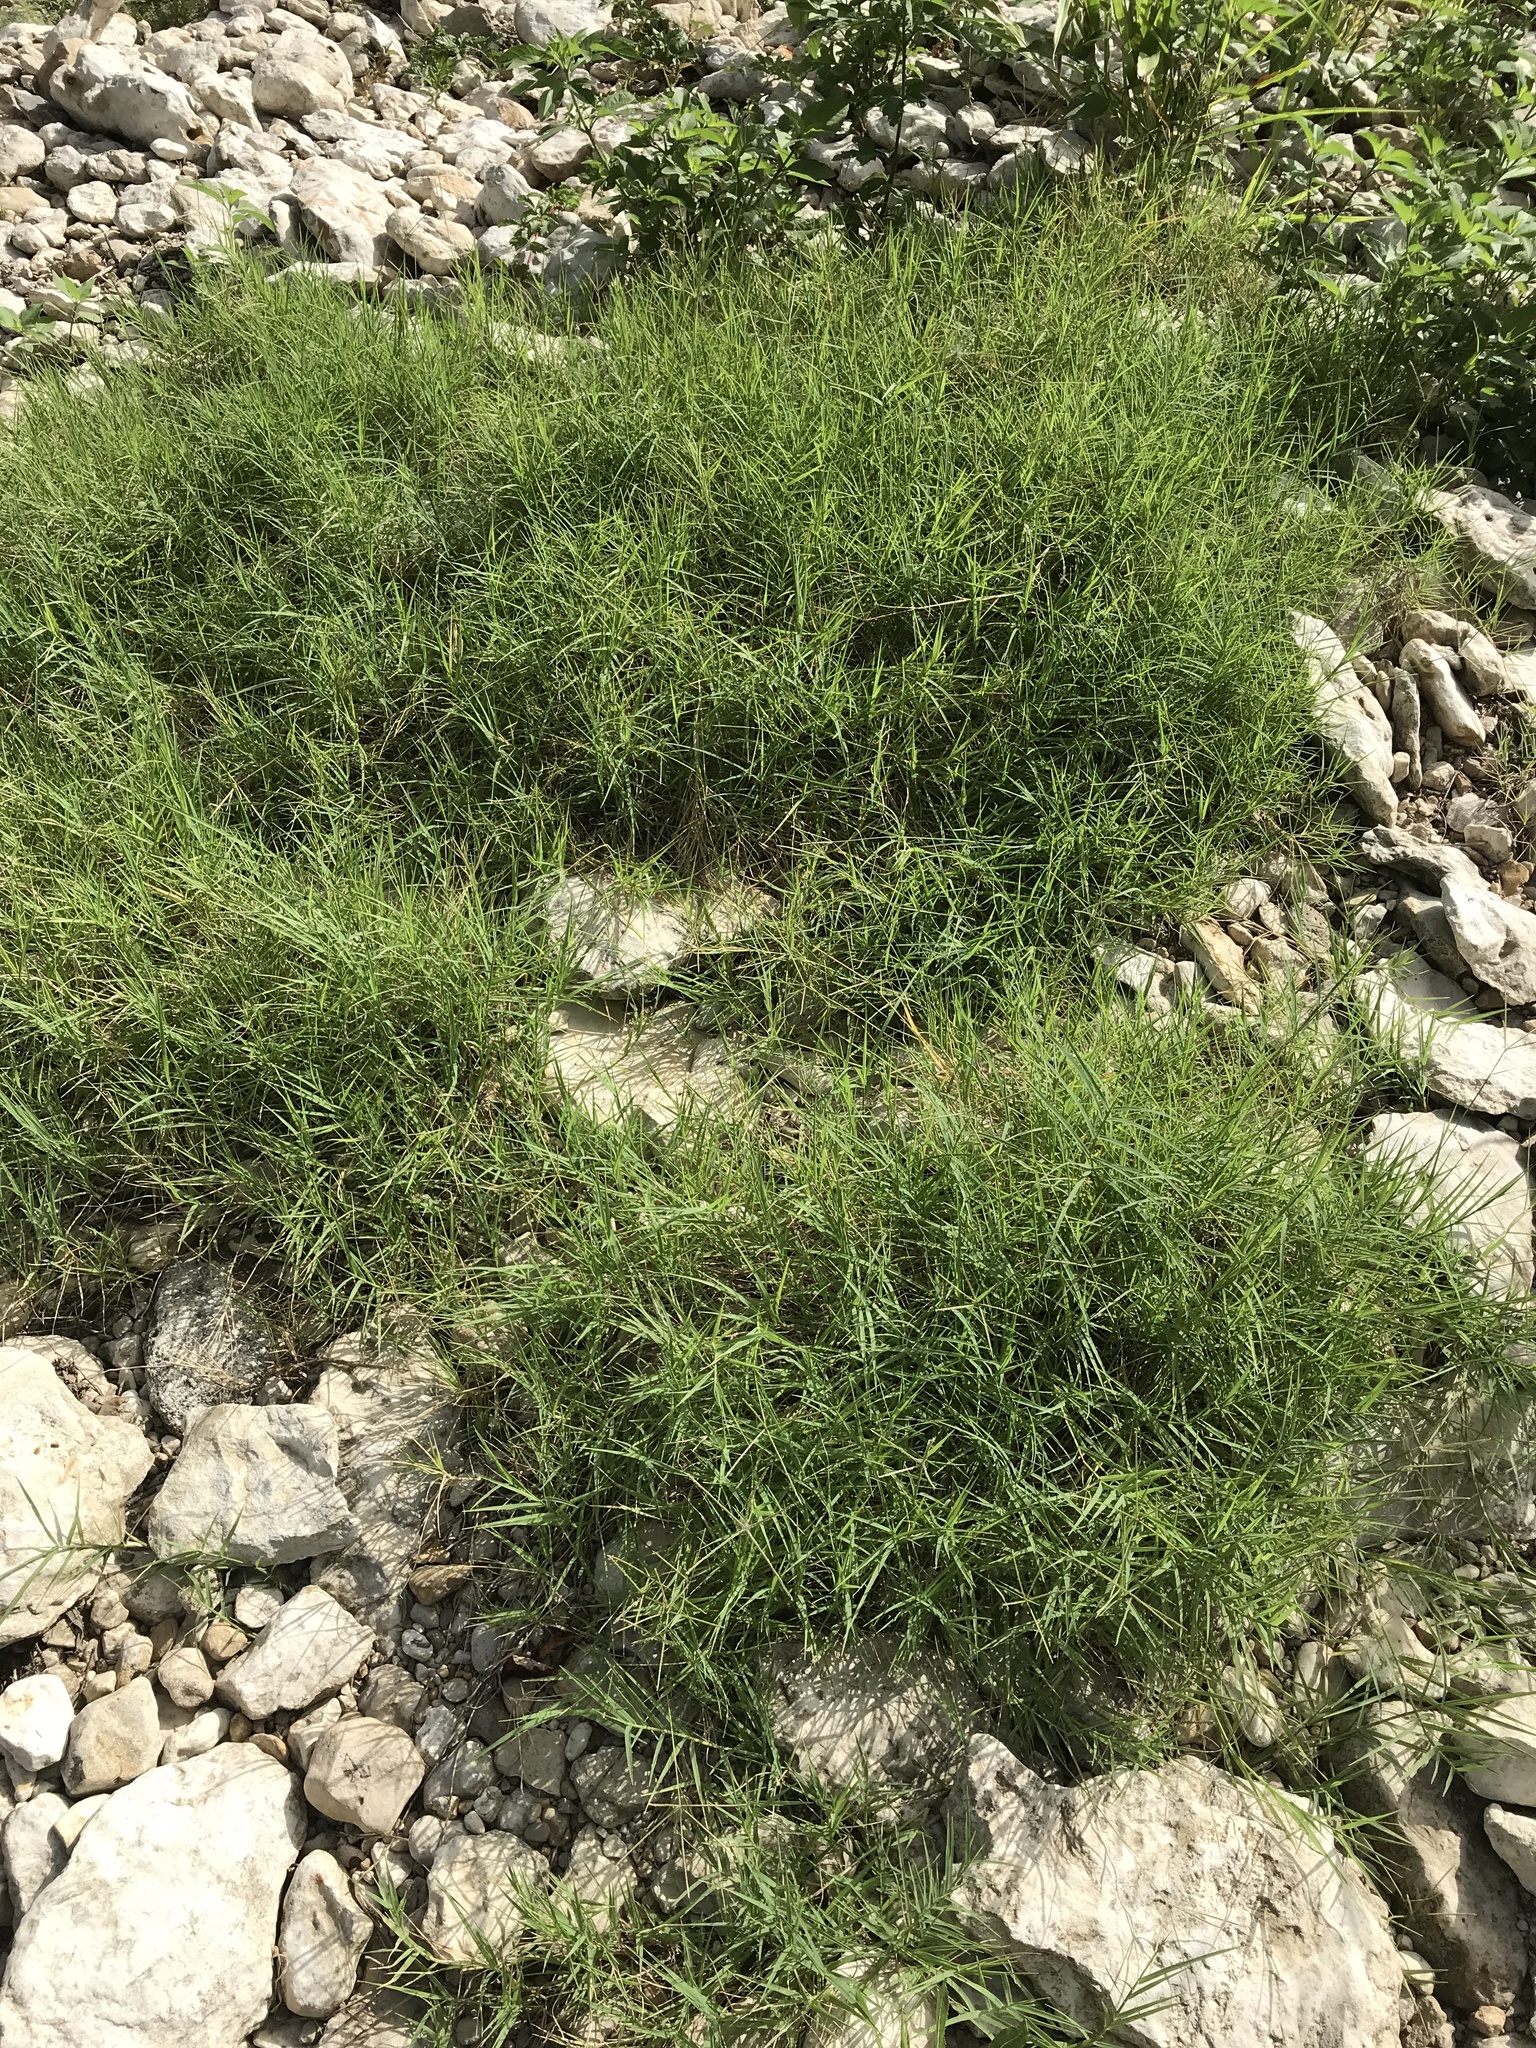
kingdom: Plantae
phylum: Tracheophyta
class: Liliopsida
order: Poales
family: Poaceae
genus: Cynodon
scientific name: Cynodon dactylon
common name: Bermuda grass
